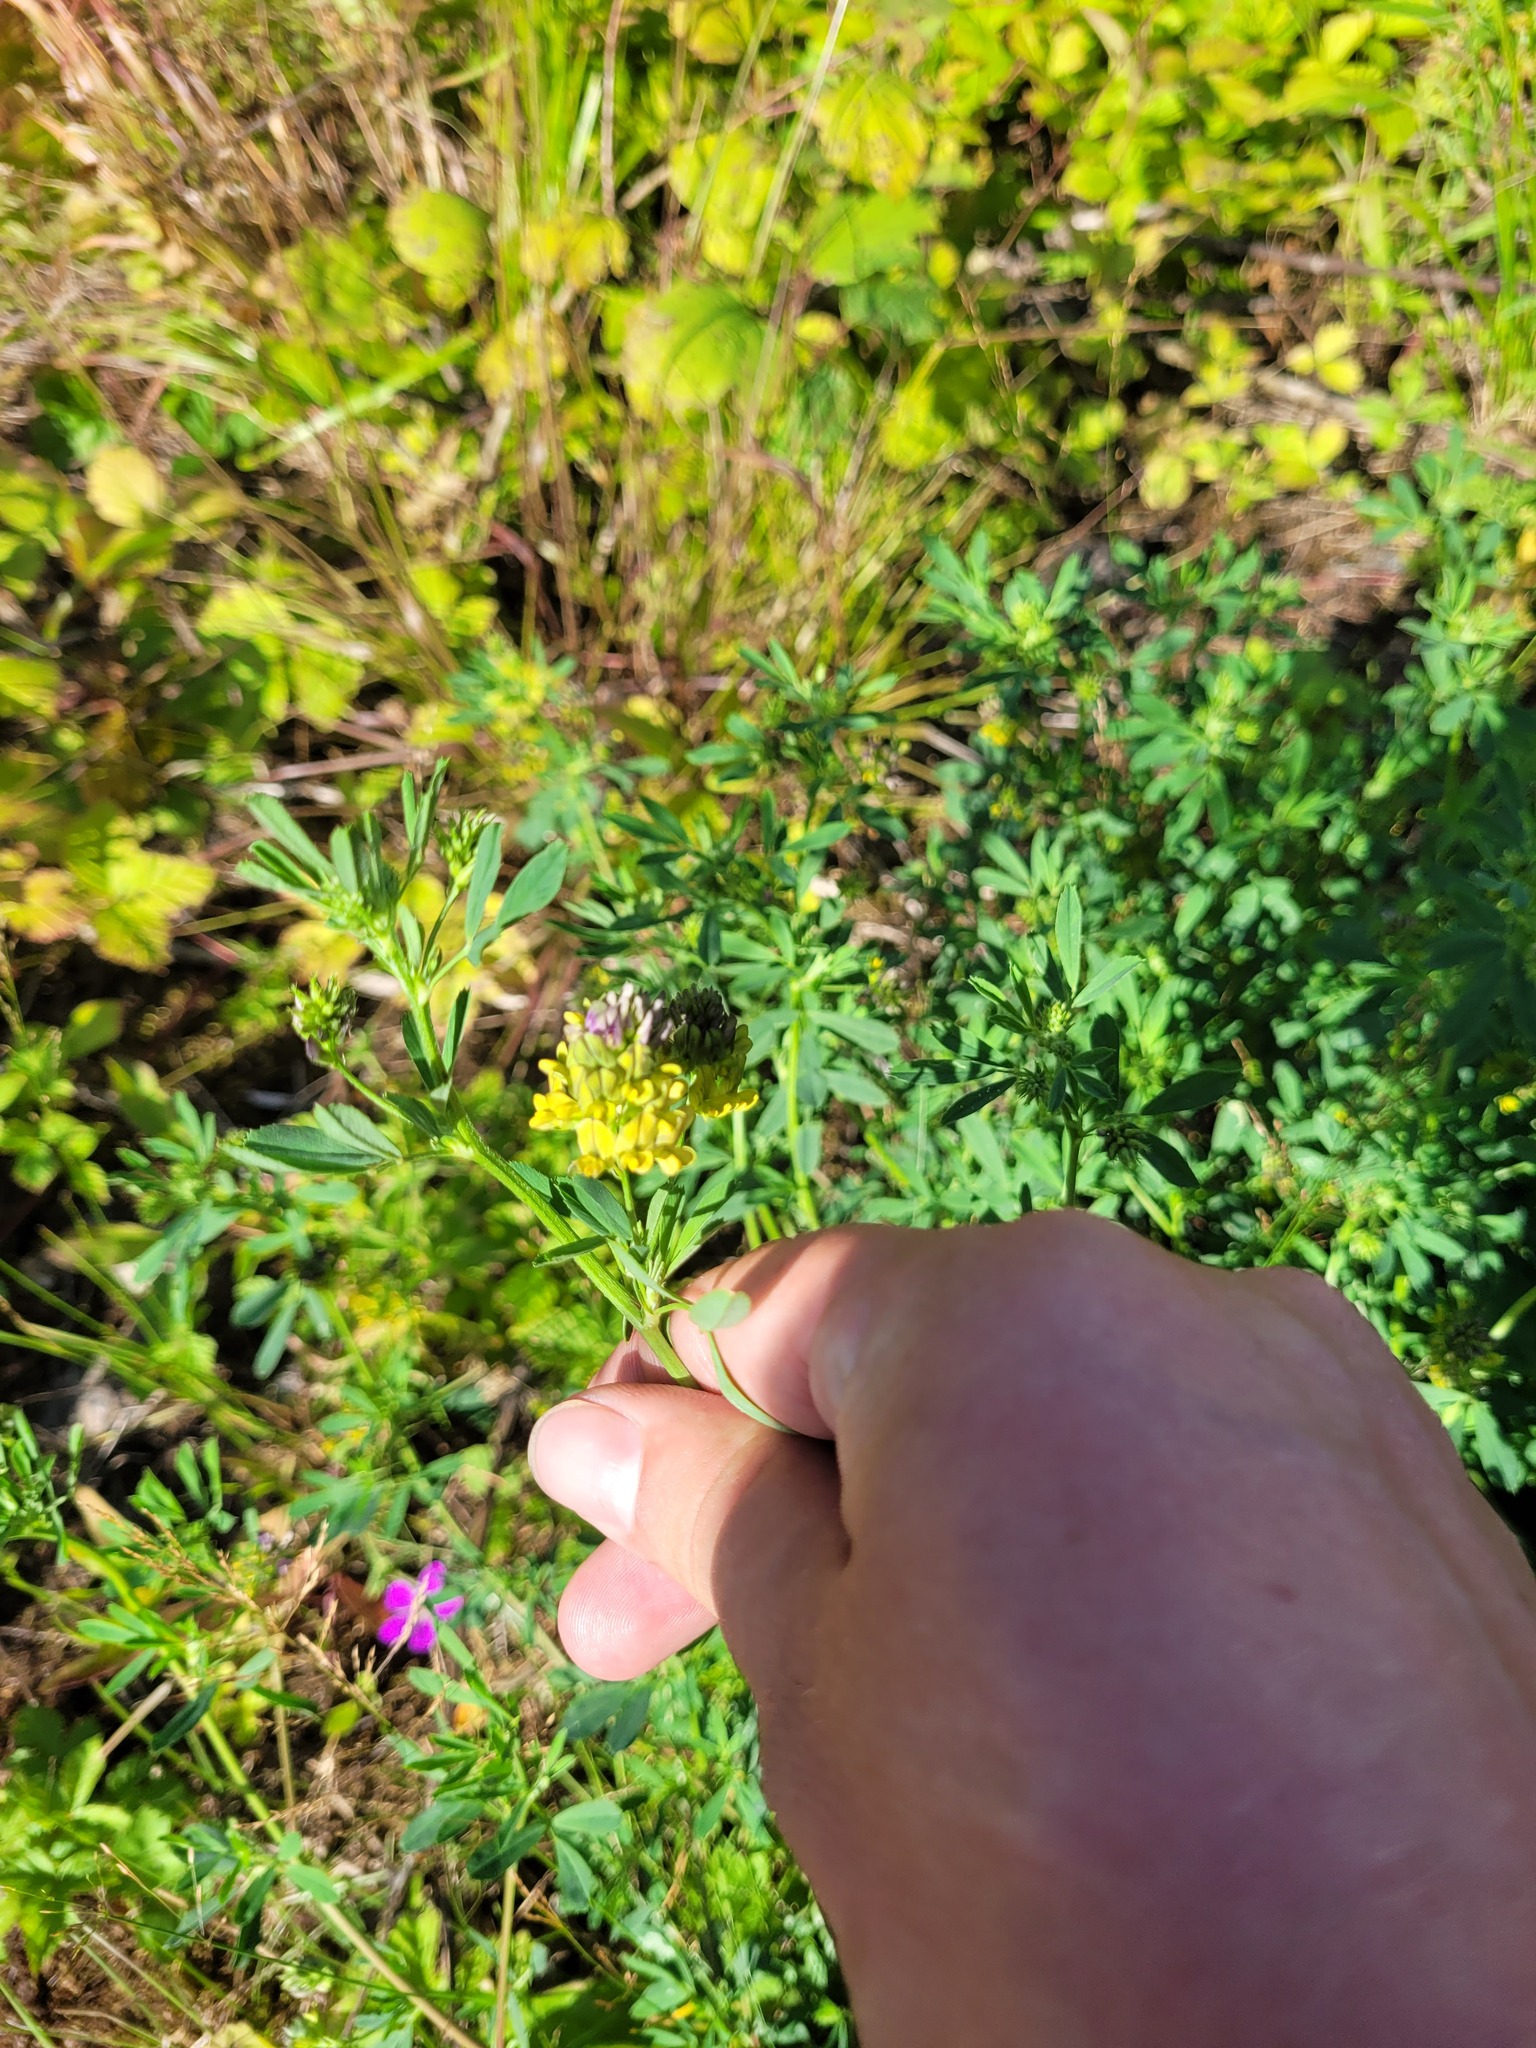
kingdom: Plantae
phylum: Tracheophyta
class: Magnoliopsida
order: Fabales
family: Fabaceae
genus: Medicago
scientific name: Medicago varia
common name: Sand lucerne
